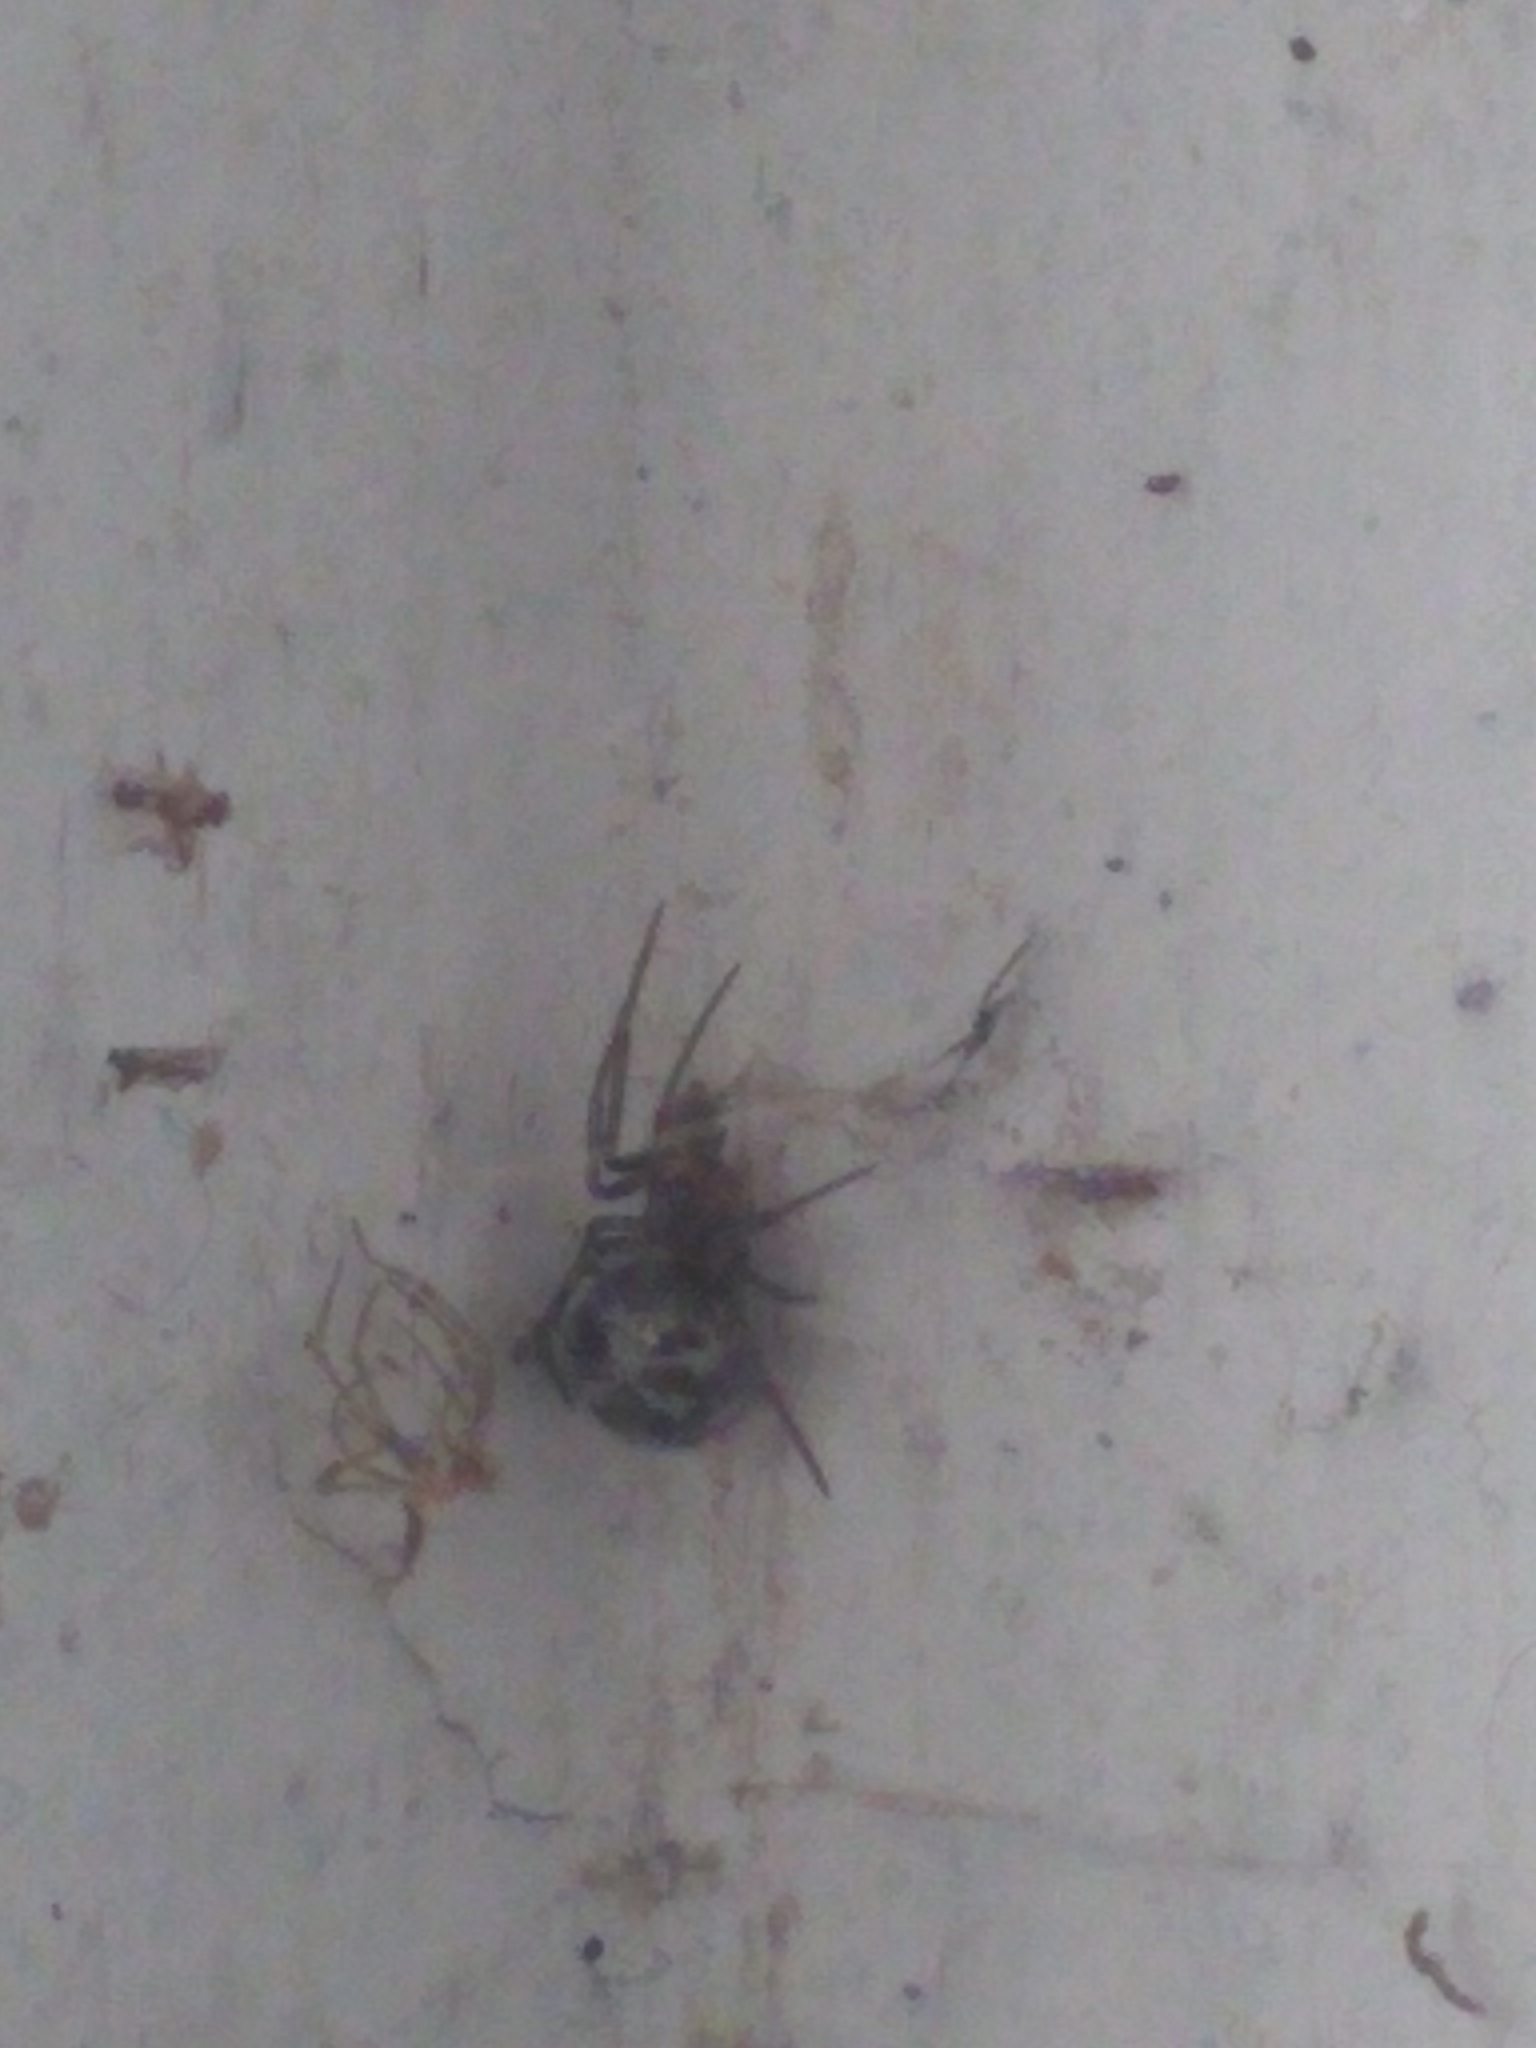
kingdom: Animalia
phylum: Arthropoda
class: Arachnida
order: Araneae
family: Theridiidae
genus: Steatoda
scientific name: Steatoda triangulosa
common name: Triangulate bud spider
